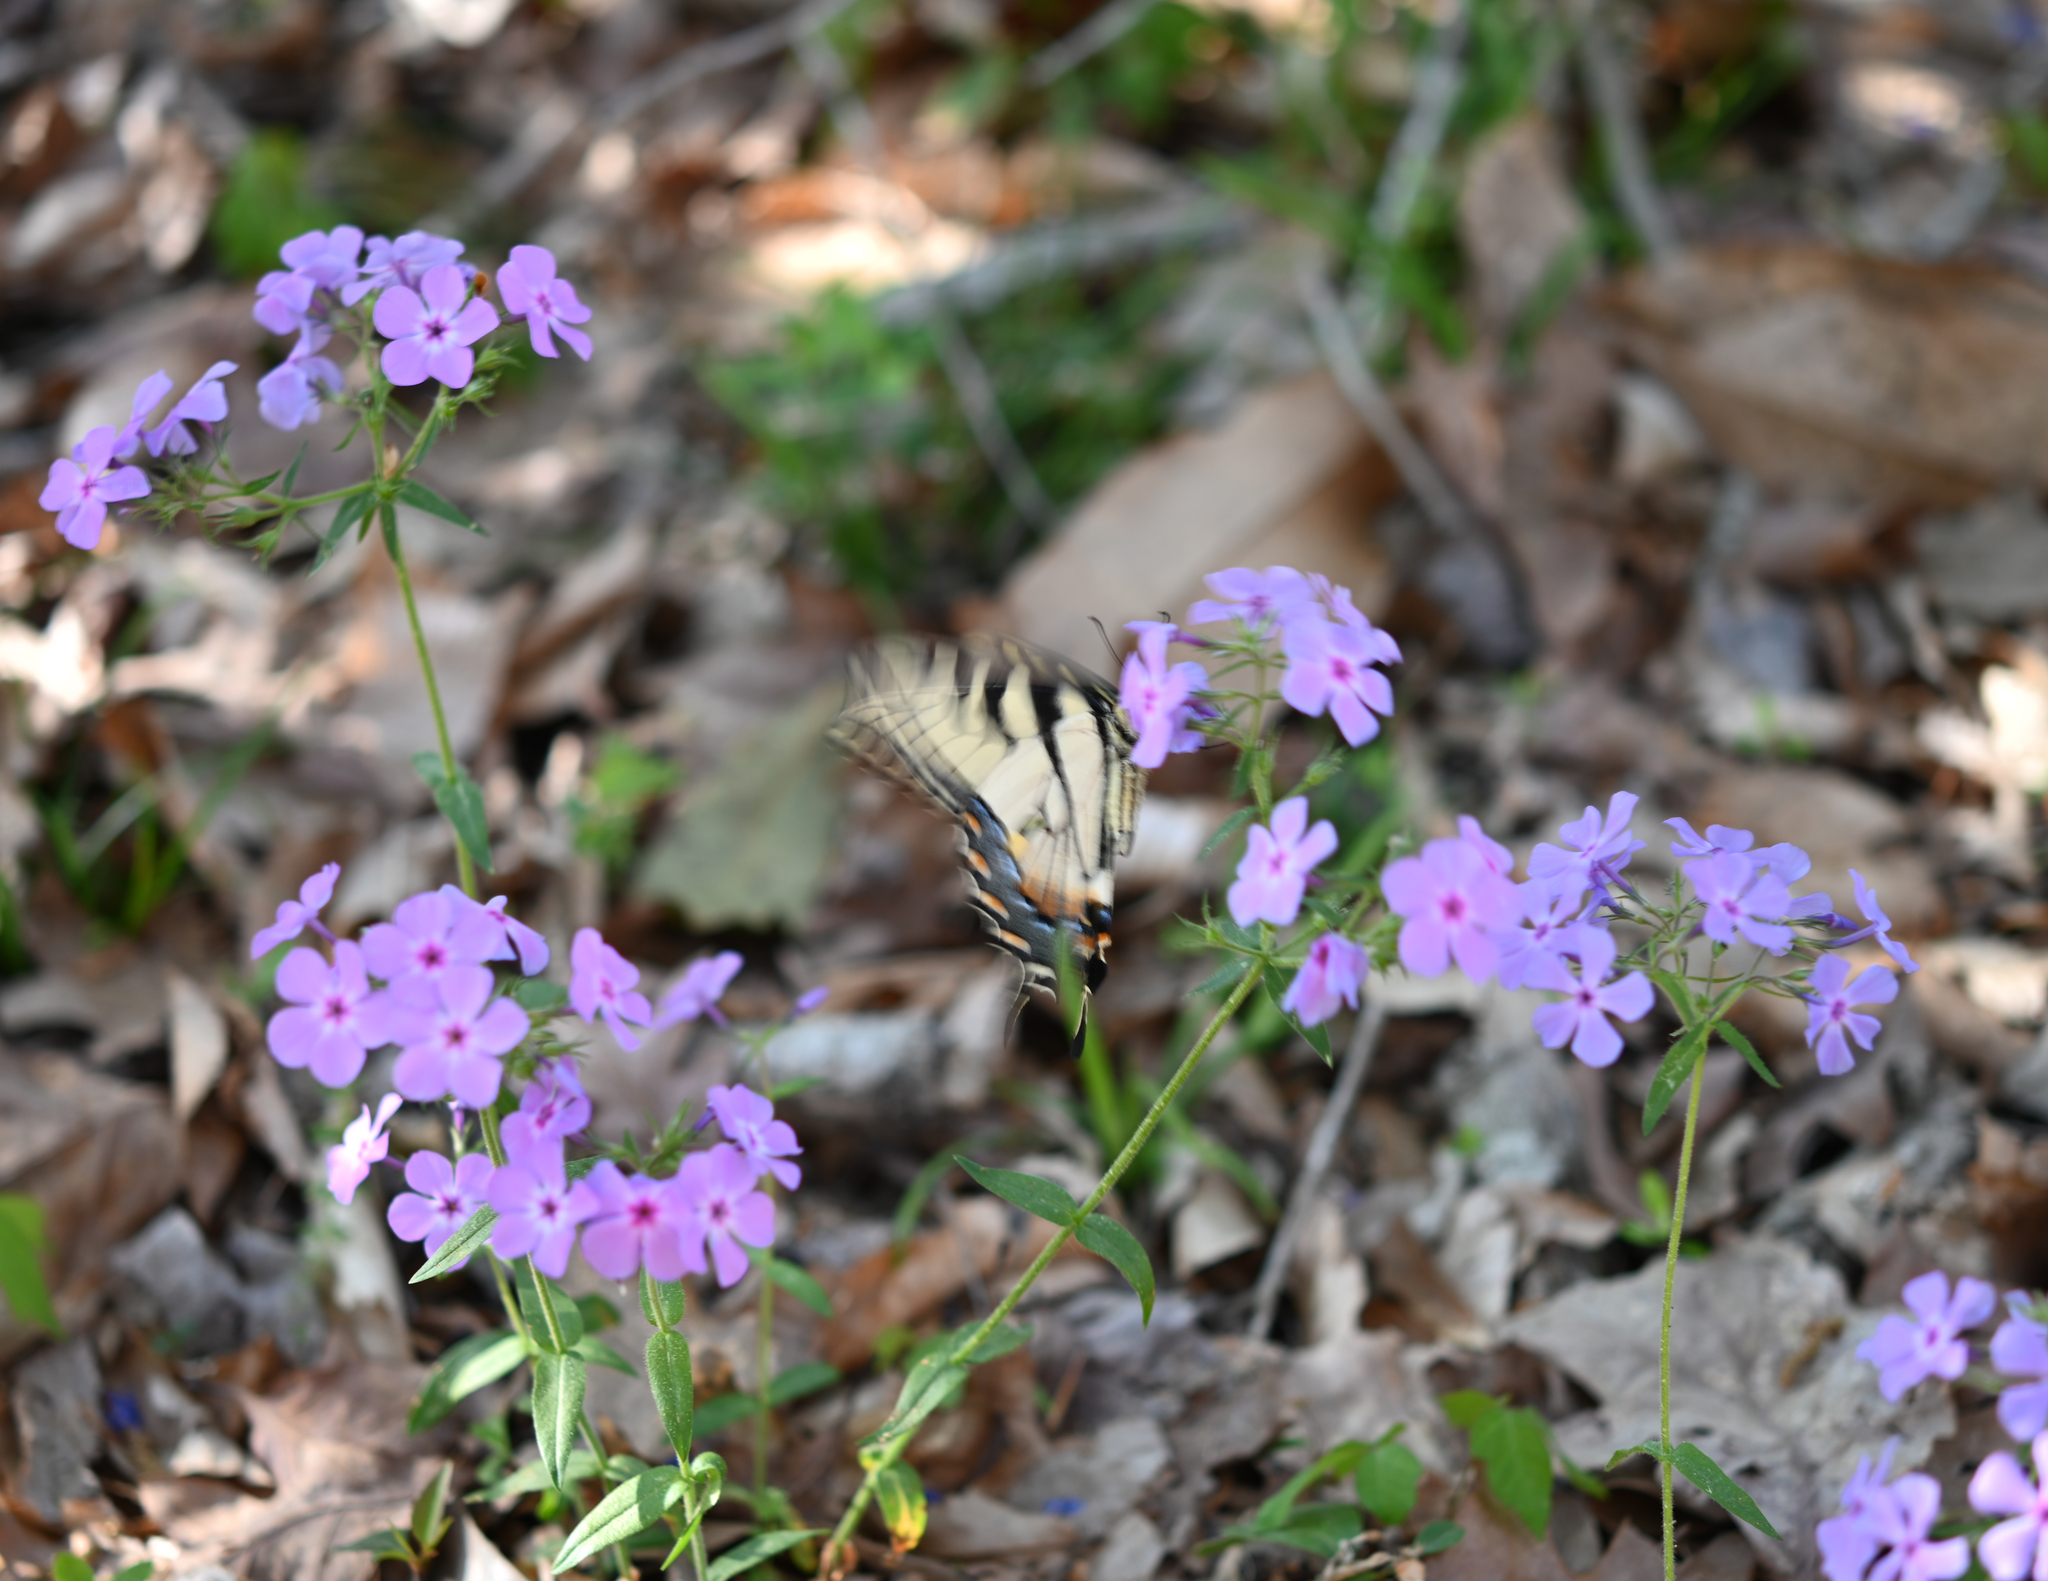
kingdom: Animalia
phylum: Arthropoda
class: Insecta
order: Lepidoptera
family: Papilionidae
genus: Papilio
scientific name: Papilio glaucus
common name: Tiger swallowtail
